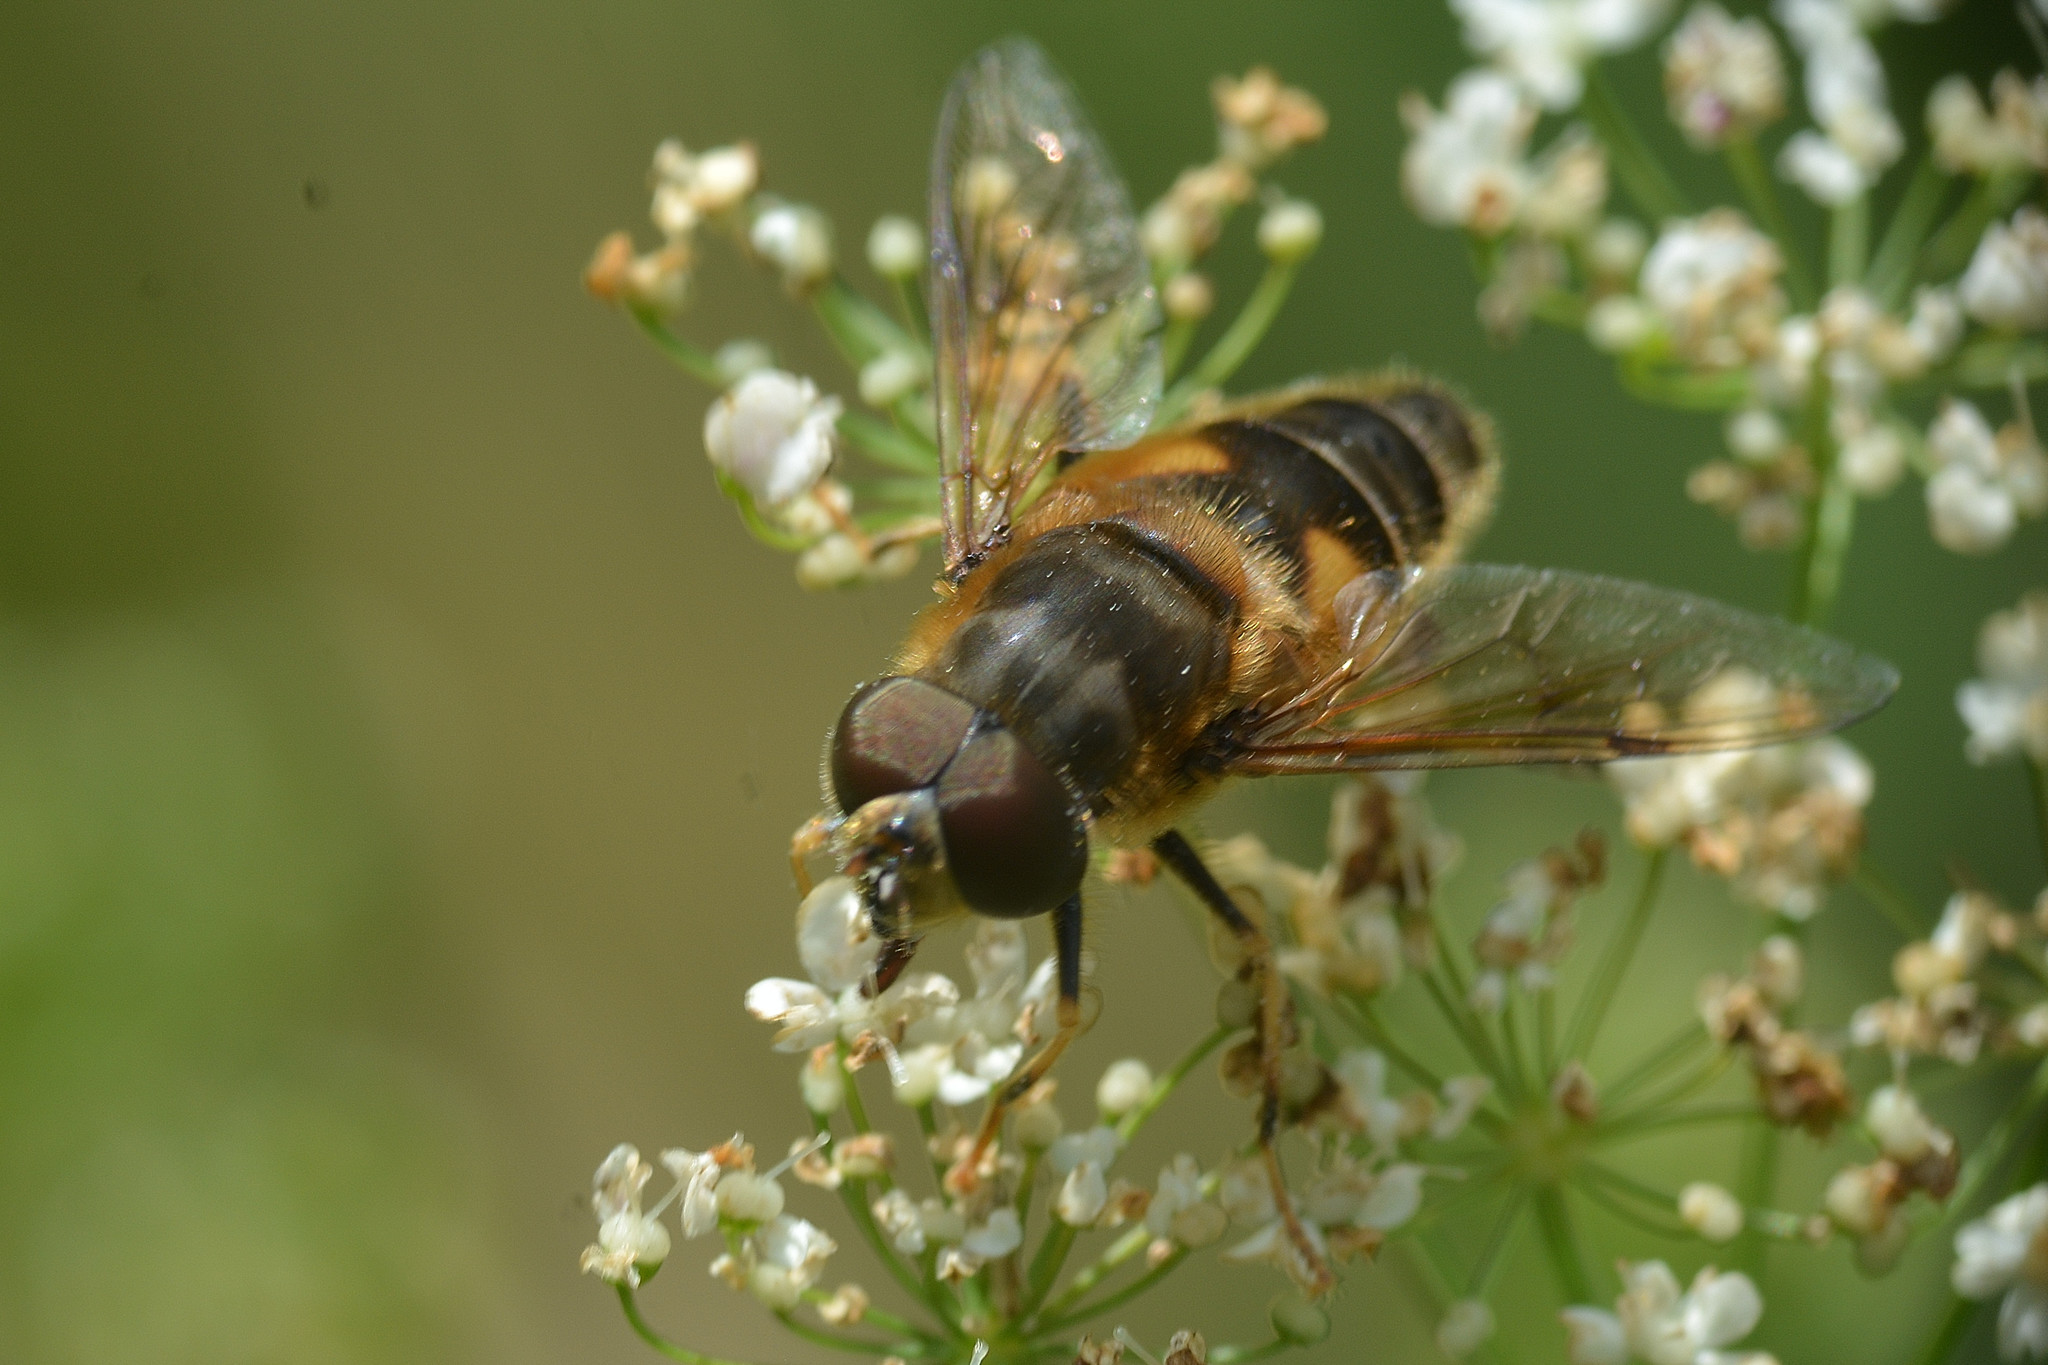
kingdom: Animalia
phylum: Arthropoda
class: Insecta
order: Diptera
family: Syrphidae
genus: Eristalis
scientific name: Eristalis pertinax
